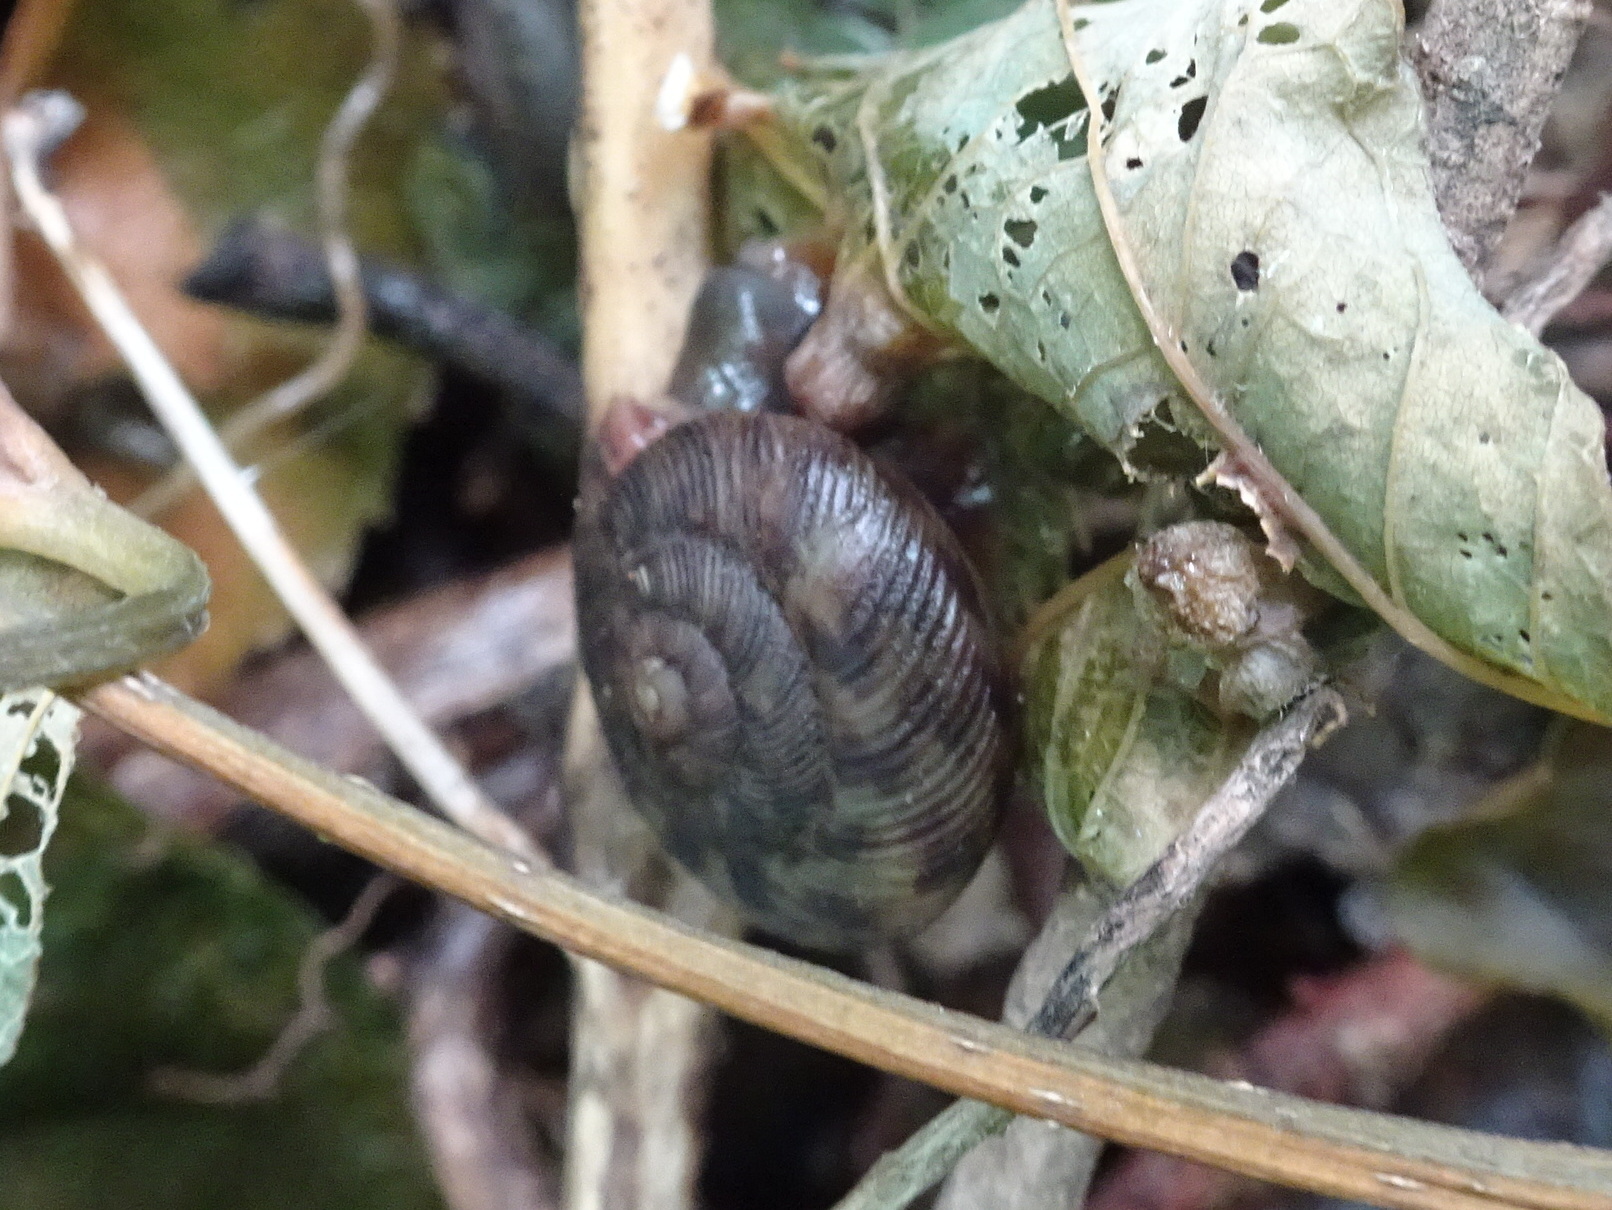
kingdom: Animalia
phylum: Mollusca
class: Gastropoda
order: Stylommatophora
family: Discidae
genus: Anguispira
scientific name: Anguispira alternata
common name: Flamed tigersnail
